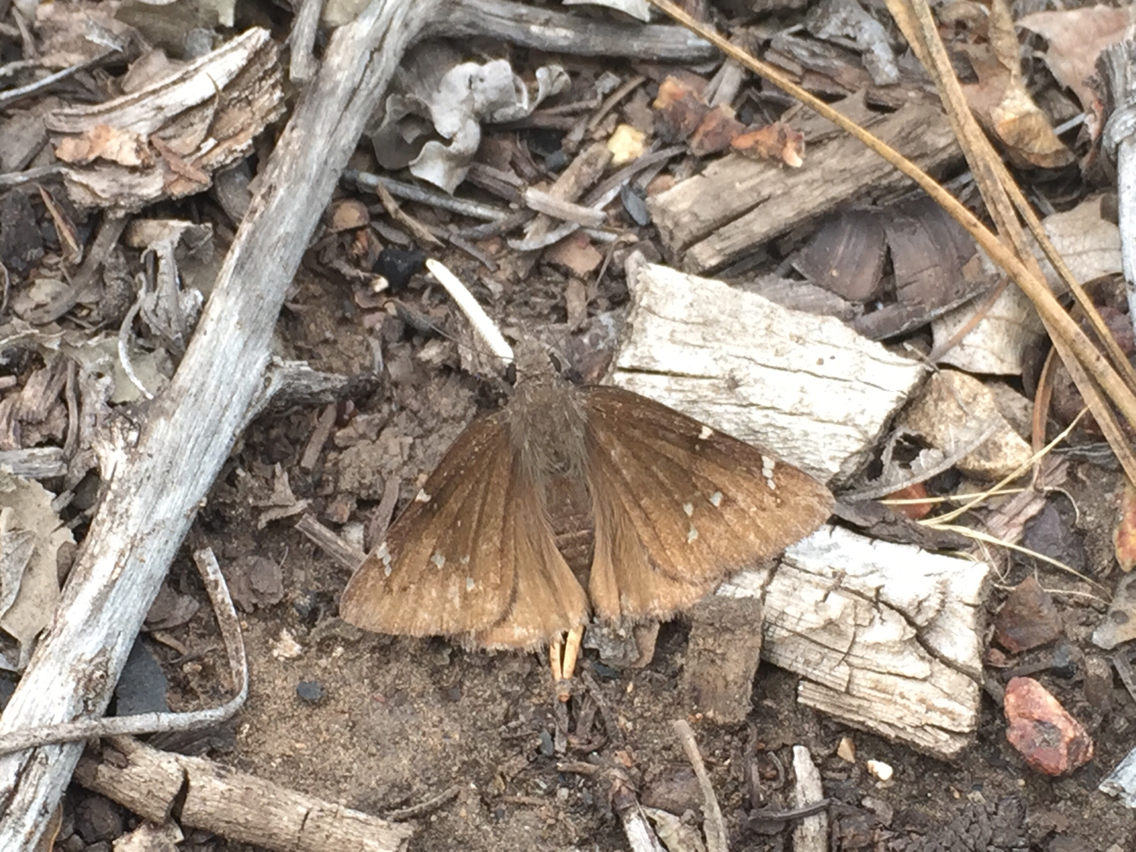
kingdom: Animalia
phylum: Arthropoda
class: Insecta
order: Lepidoptera
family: Hesperiidae
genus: Thorybes
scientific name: Thorybes pylades
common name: Northern cloudywing
